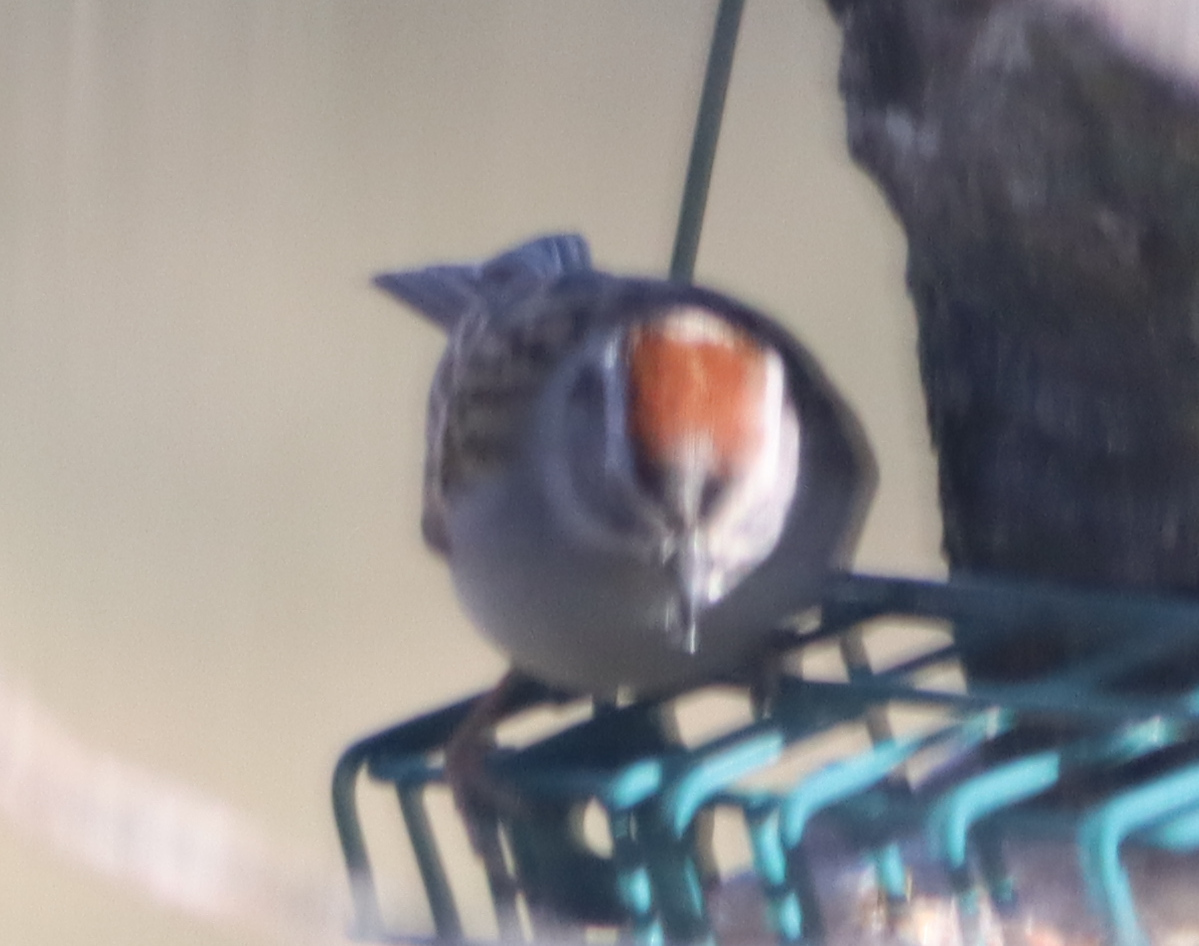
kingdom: Animalia
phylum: Chordata
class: Aves
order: Passeriformes
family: Passerellidae
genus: Spizella
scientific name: Spizella passerina
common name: Chipping sparrow
